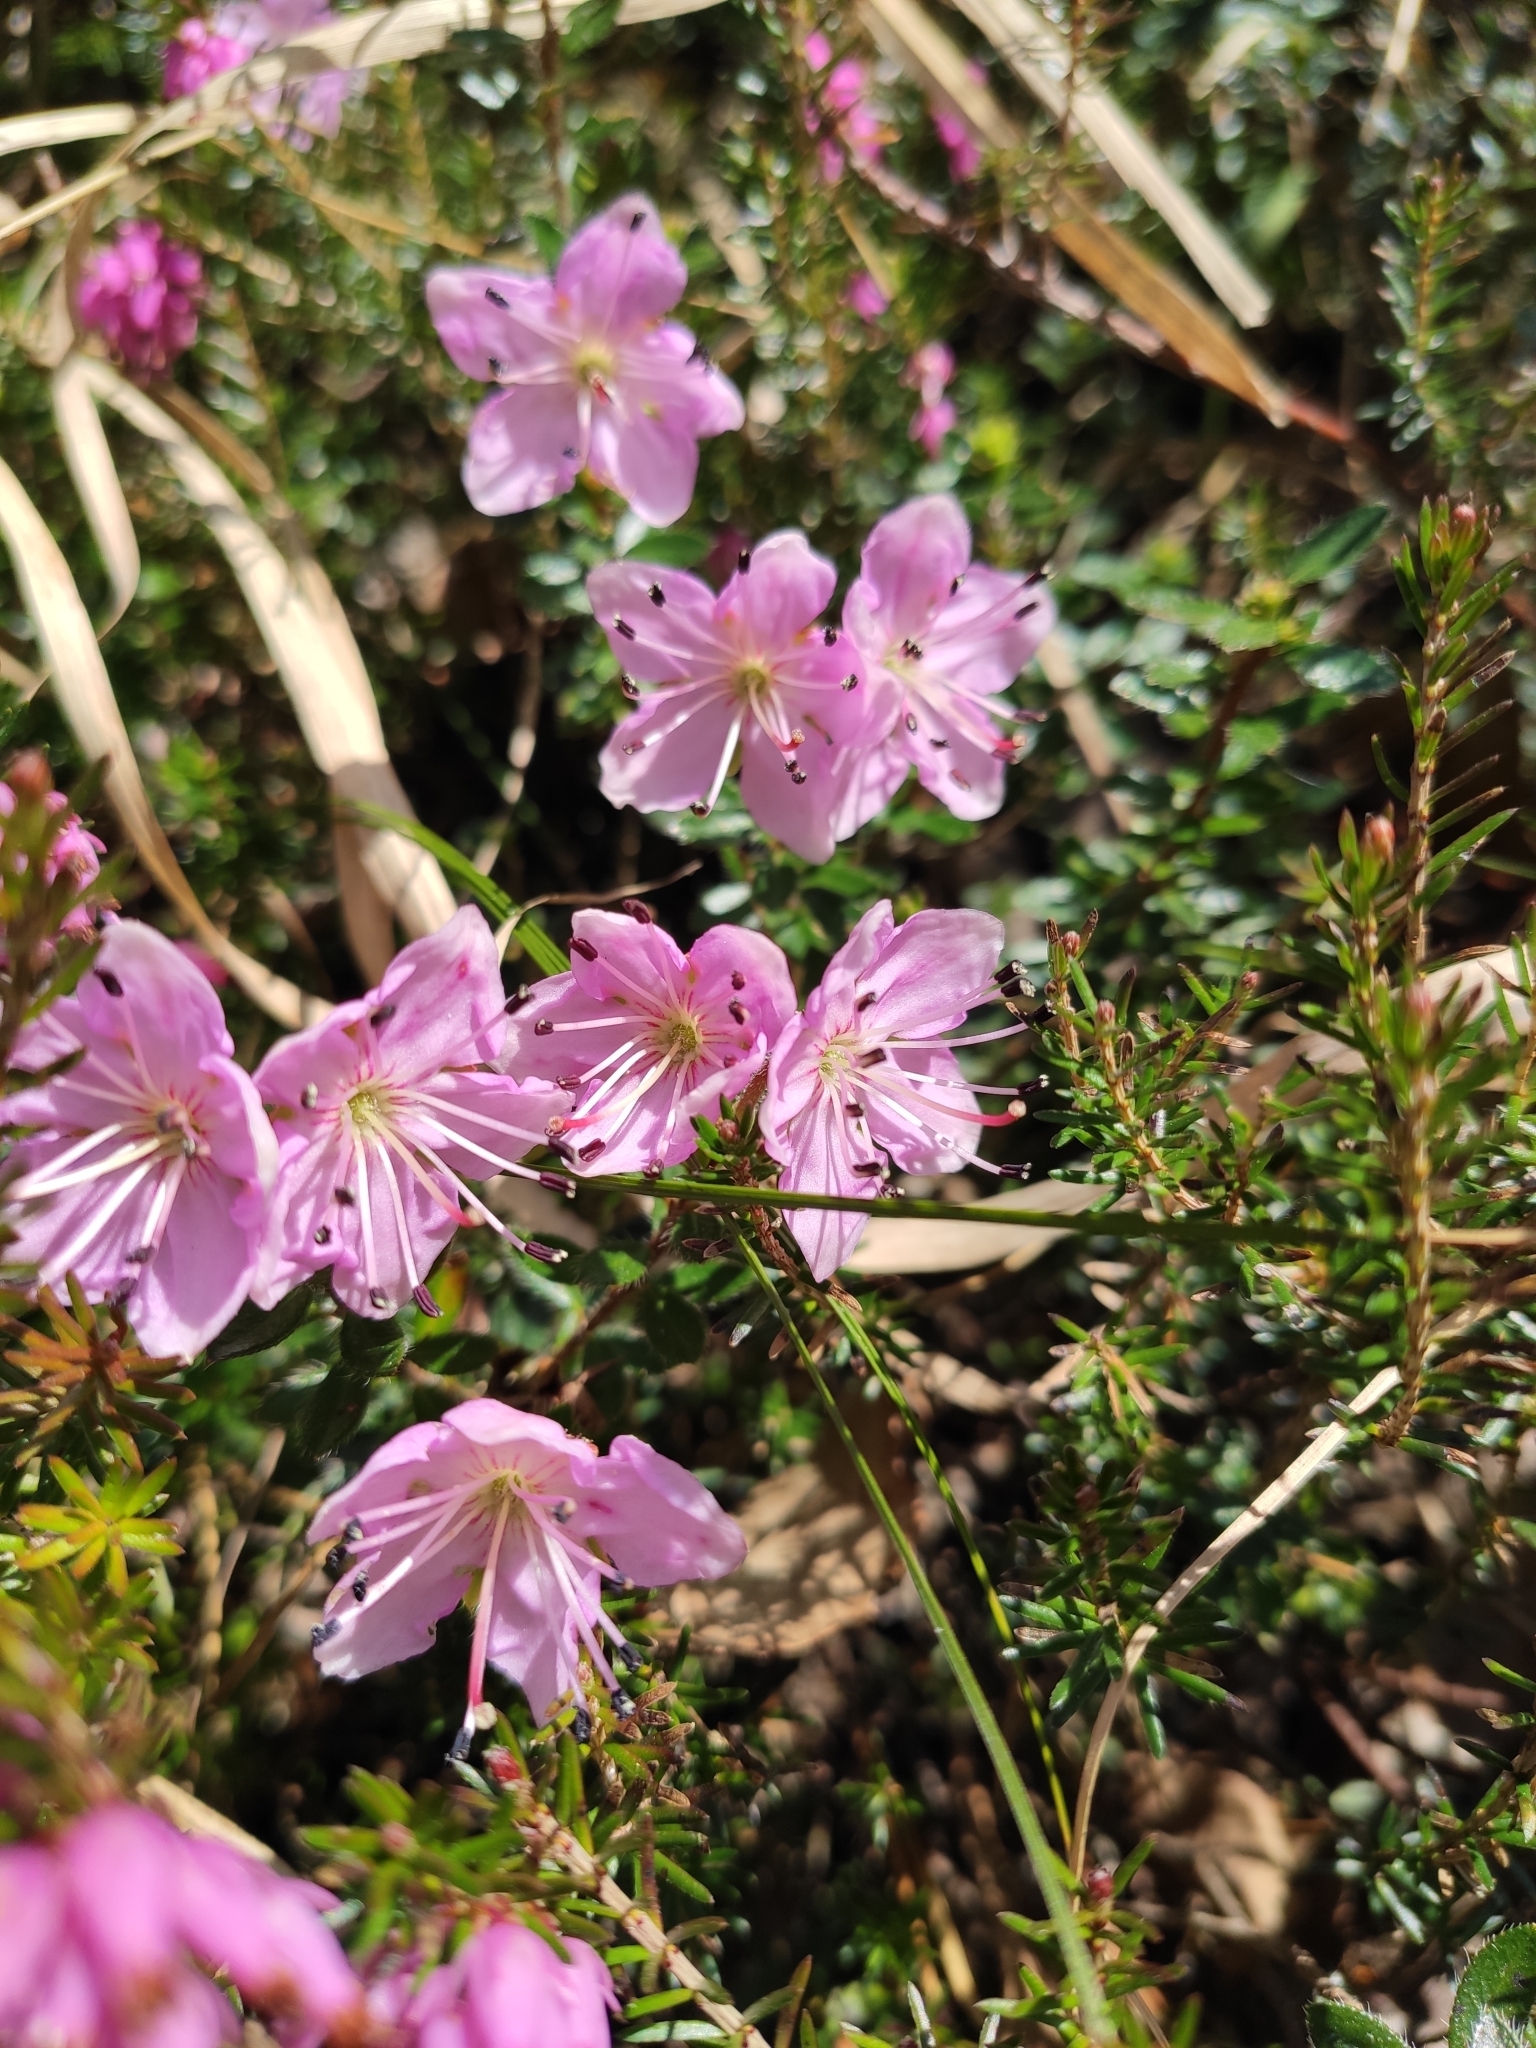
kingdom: Plantae
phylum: Tracheophyta
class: Magnoliopsida
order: Ericales
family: Ericaceae
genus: Rhodothamnus
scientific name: Rhodothamnus chamaecistus
